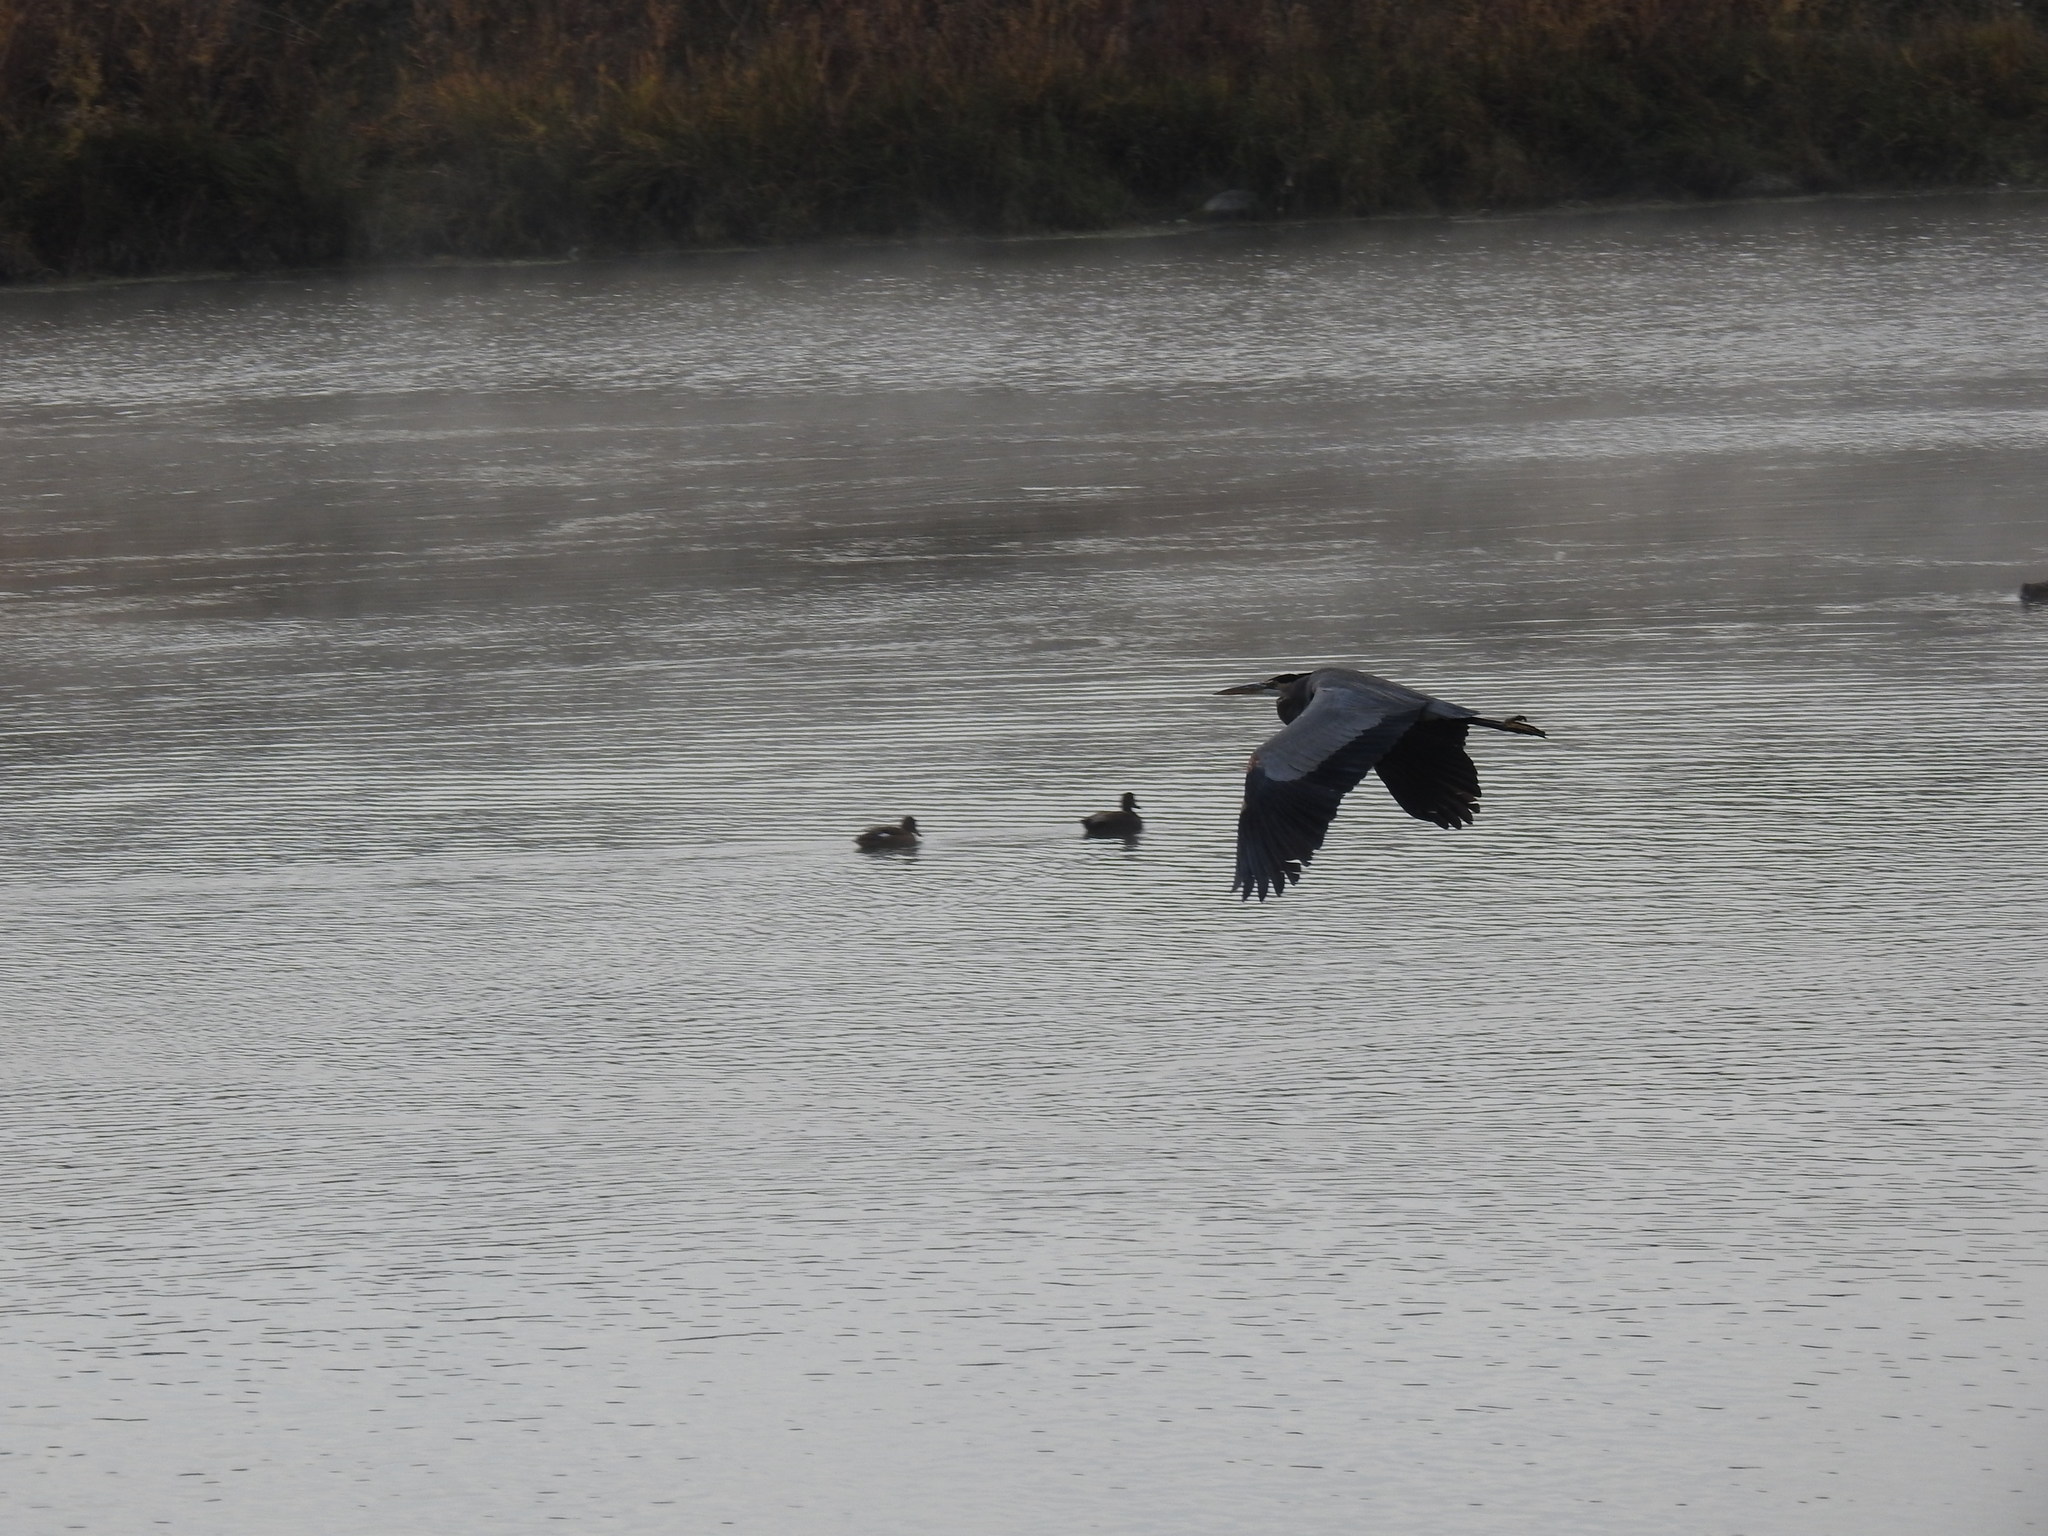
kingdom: Animalia
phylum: Chordata
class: Aves
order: Pelecaniformes
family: Ardeidae
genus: Ardea
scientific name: Ardea herodias
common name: Great blue heron
